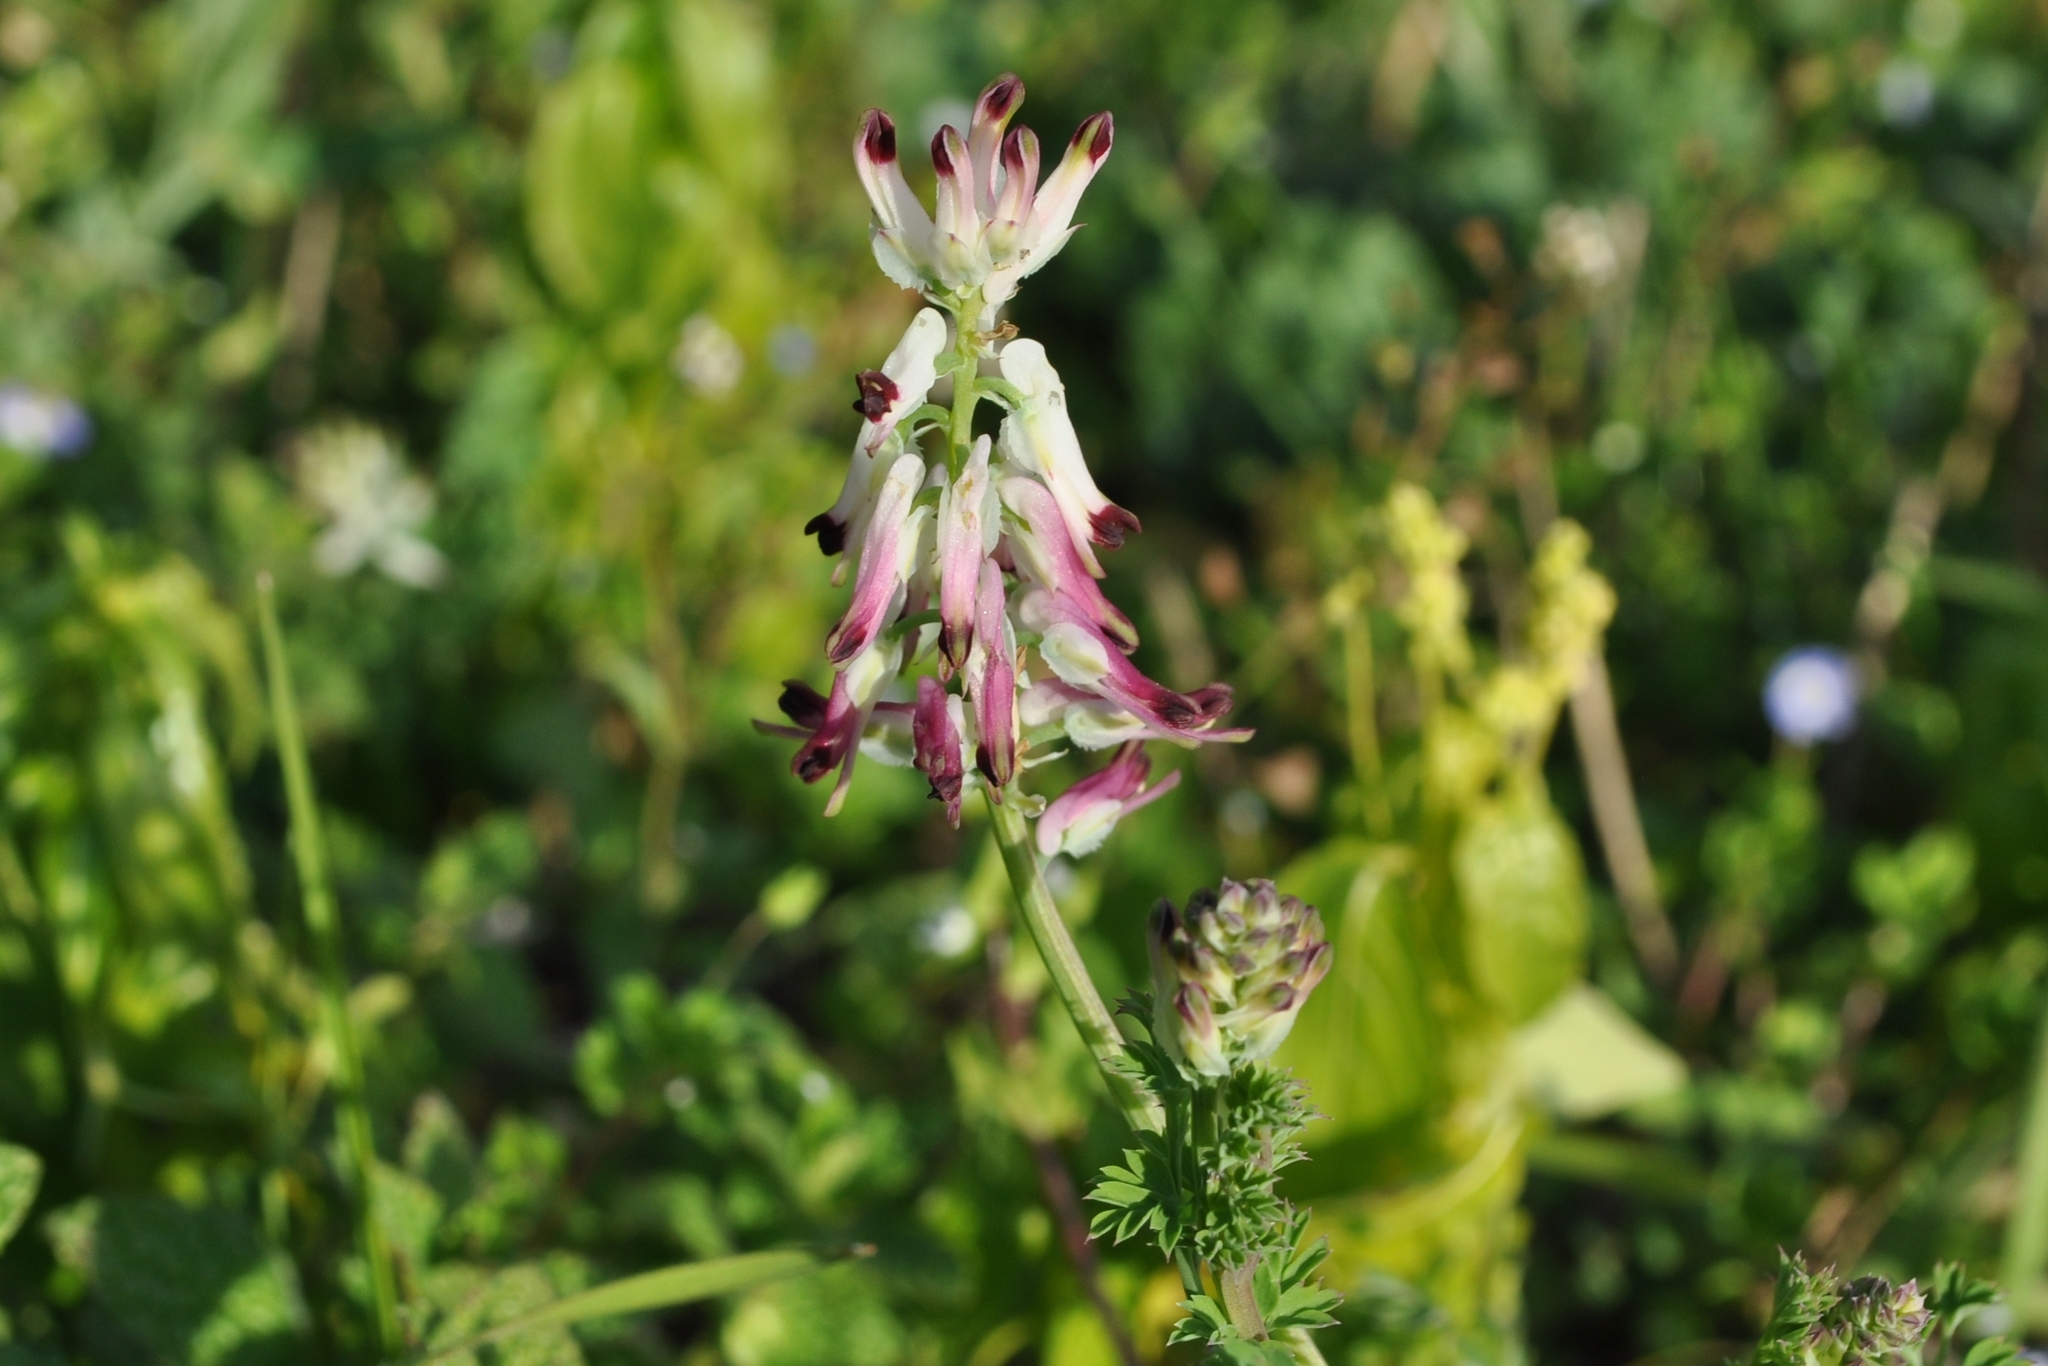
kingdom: Plantae
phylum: Tracheophyta
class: Magnoliopsida
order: Ranunculales
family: Papaveraceae
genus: Fumaria
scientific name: Fumaria capreolata
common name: White ramping-fumitory
